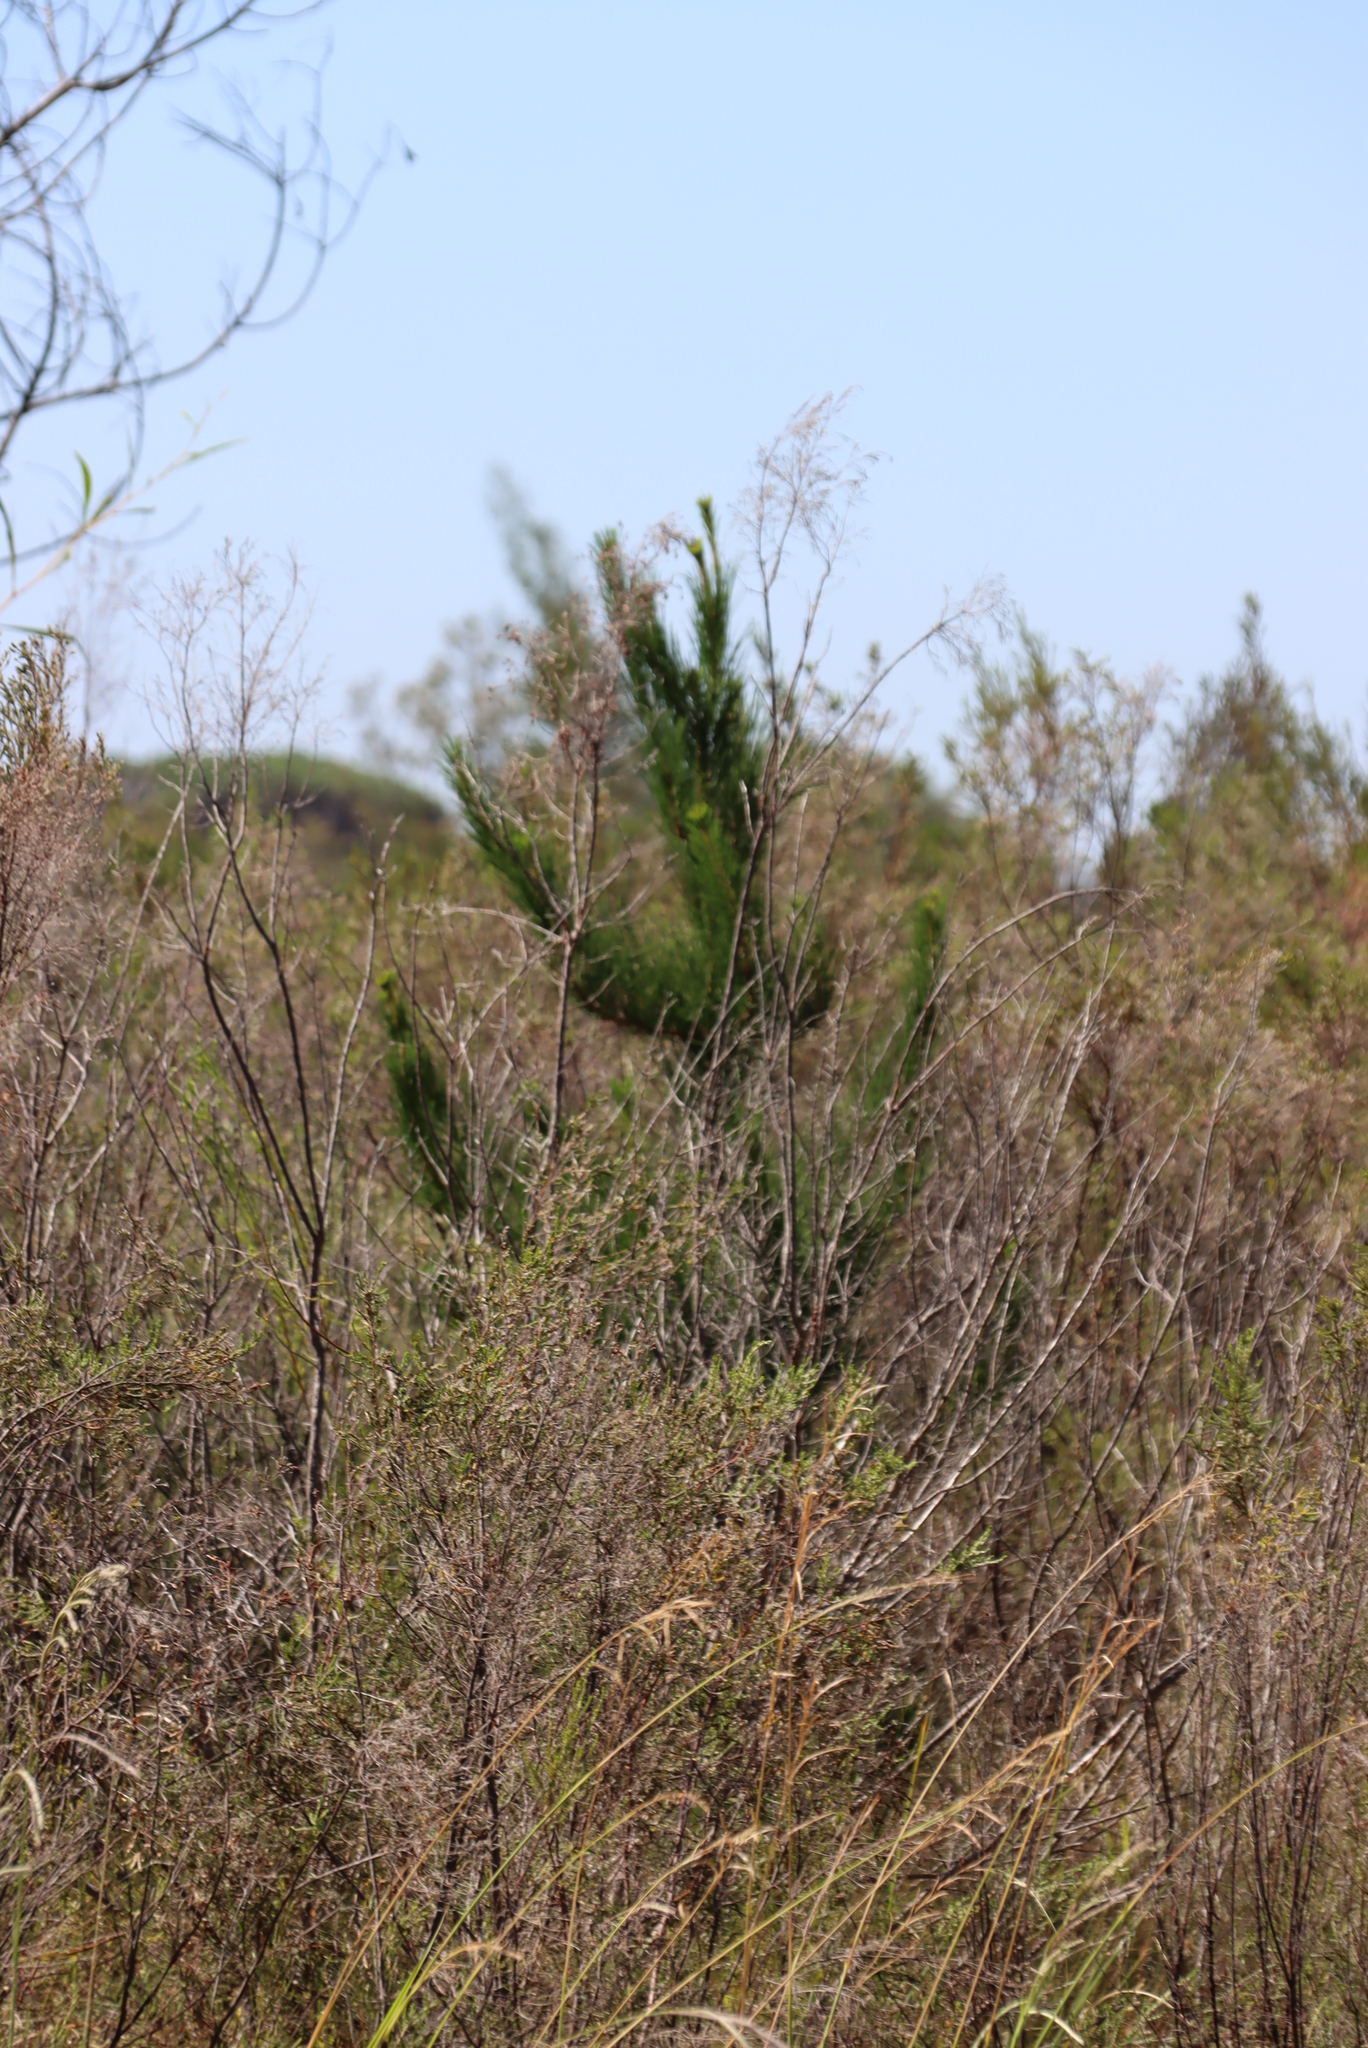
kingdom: Plantae
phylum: Tracheophyta
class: Pinopsida
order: Pinales
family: Pinaceae
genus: Pinus
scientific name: Pinus radiata
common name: Monterey pine
